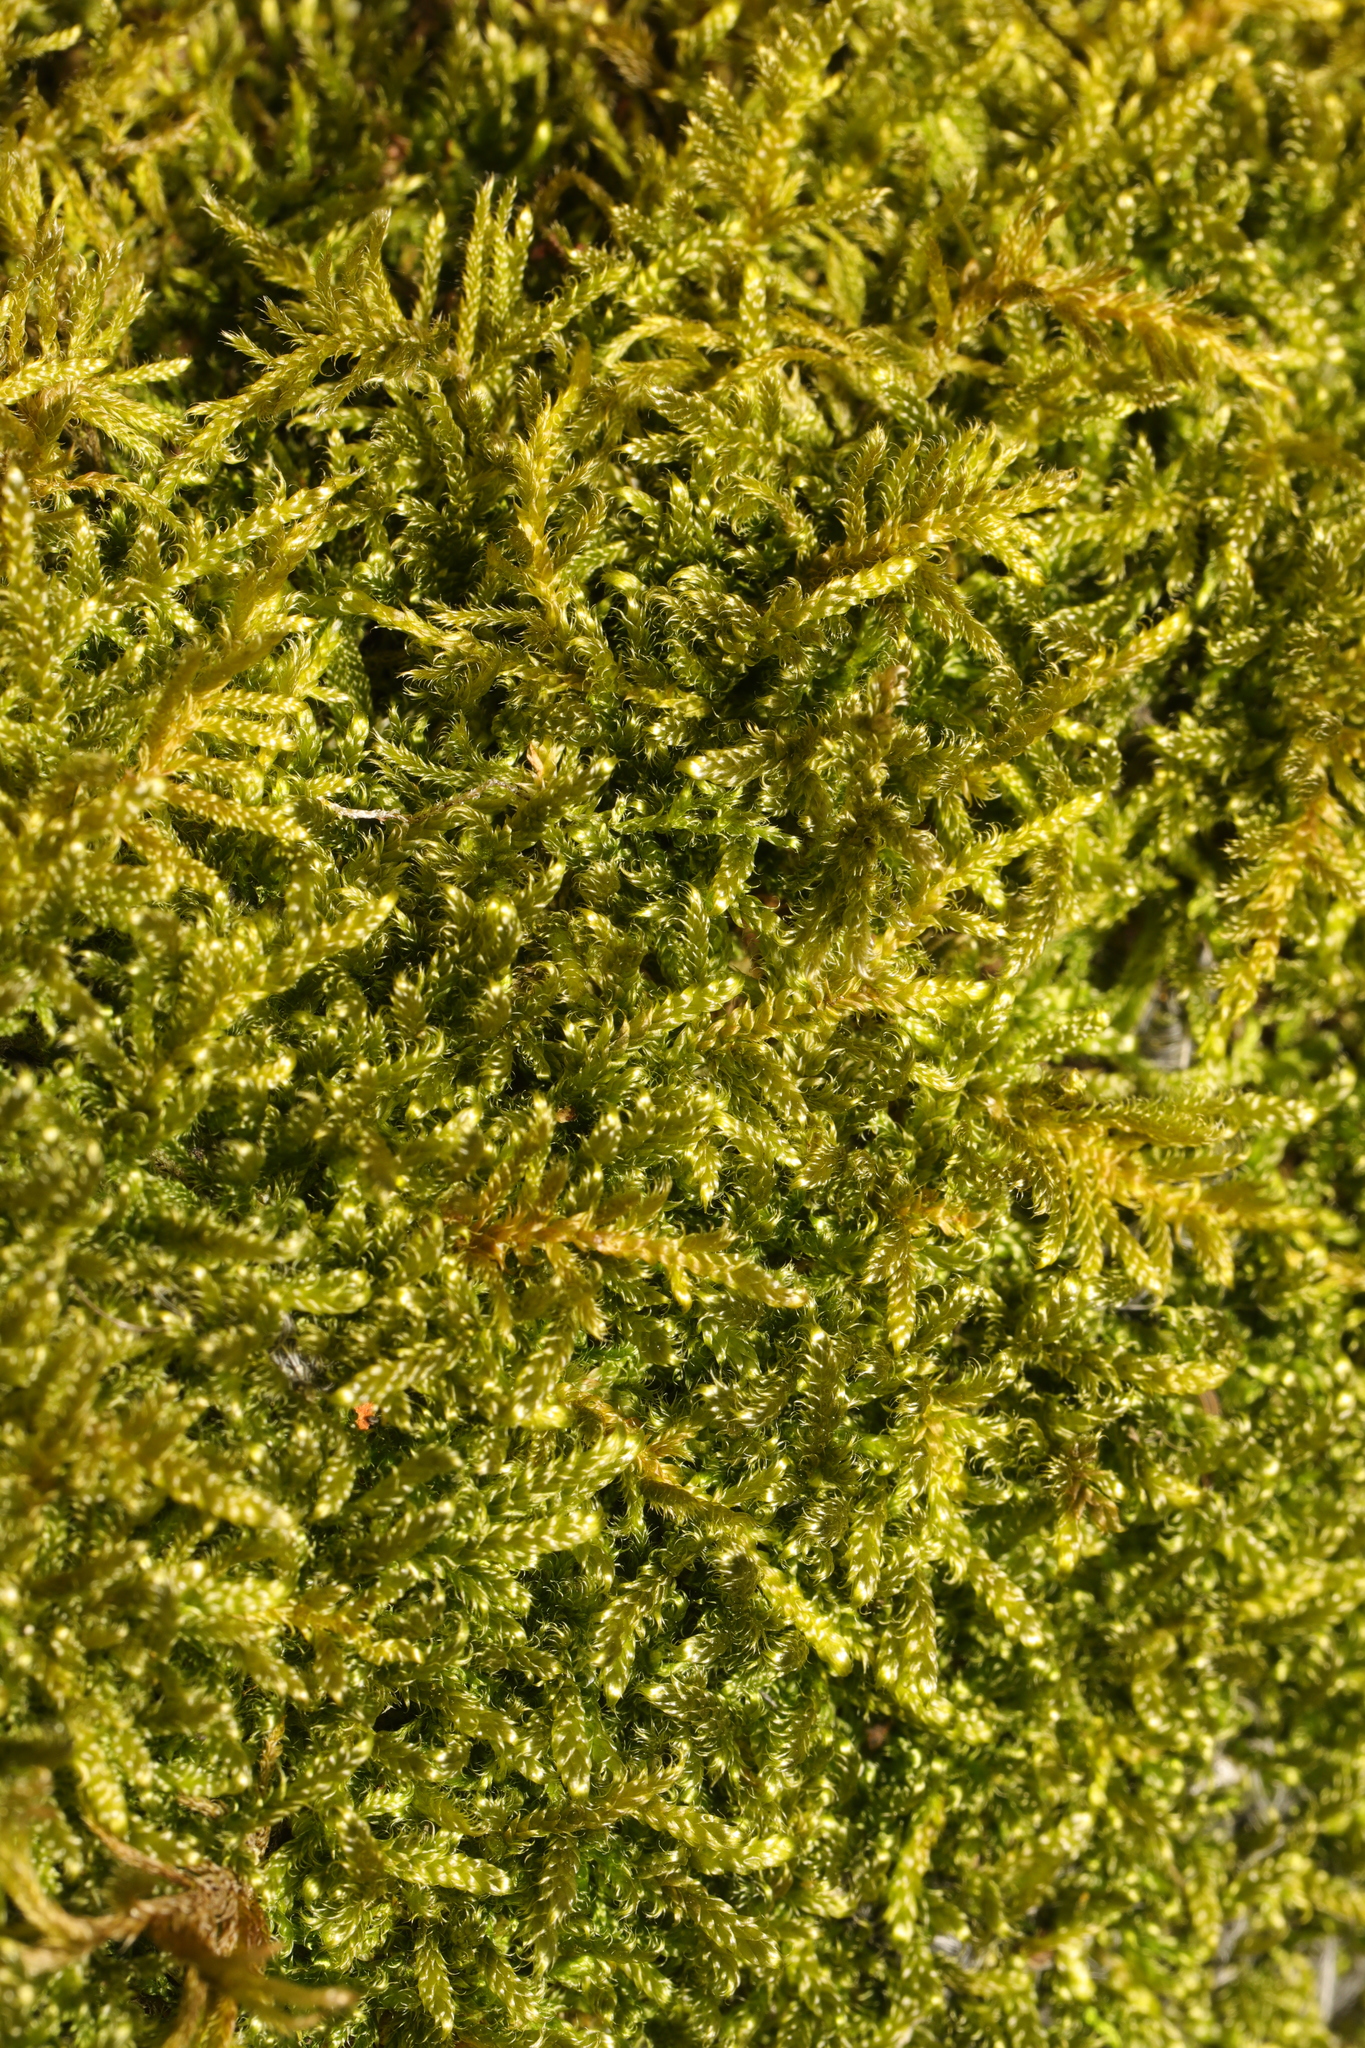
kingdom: Plantae
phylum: Bryophyta
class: Bryopsida
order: Hypnales
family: Hypnaceae
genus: Hypnum
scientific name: Hypnum cupressiforme
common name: Cypress-leaved plait-moss
